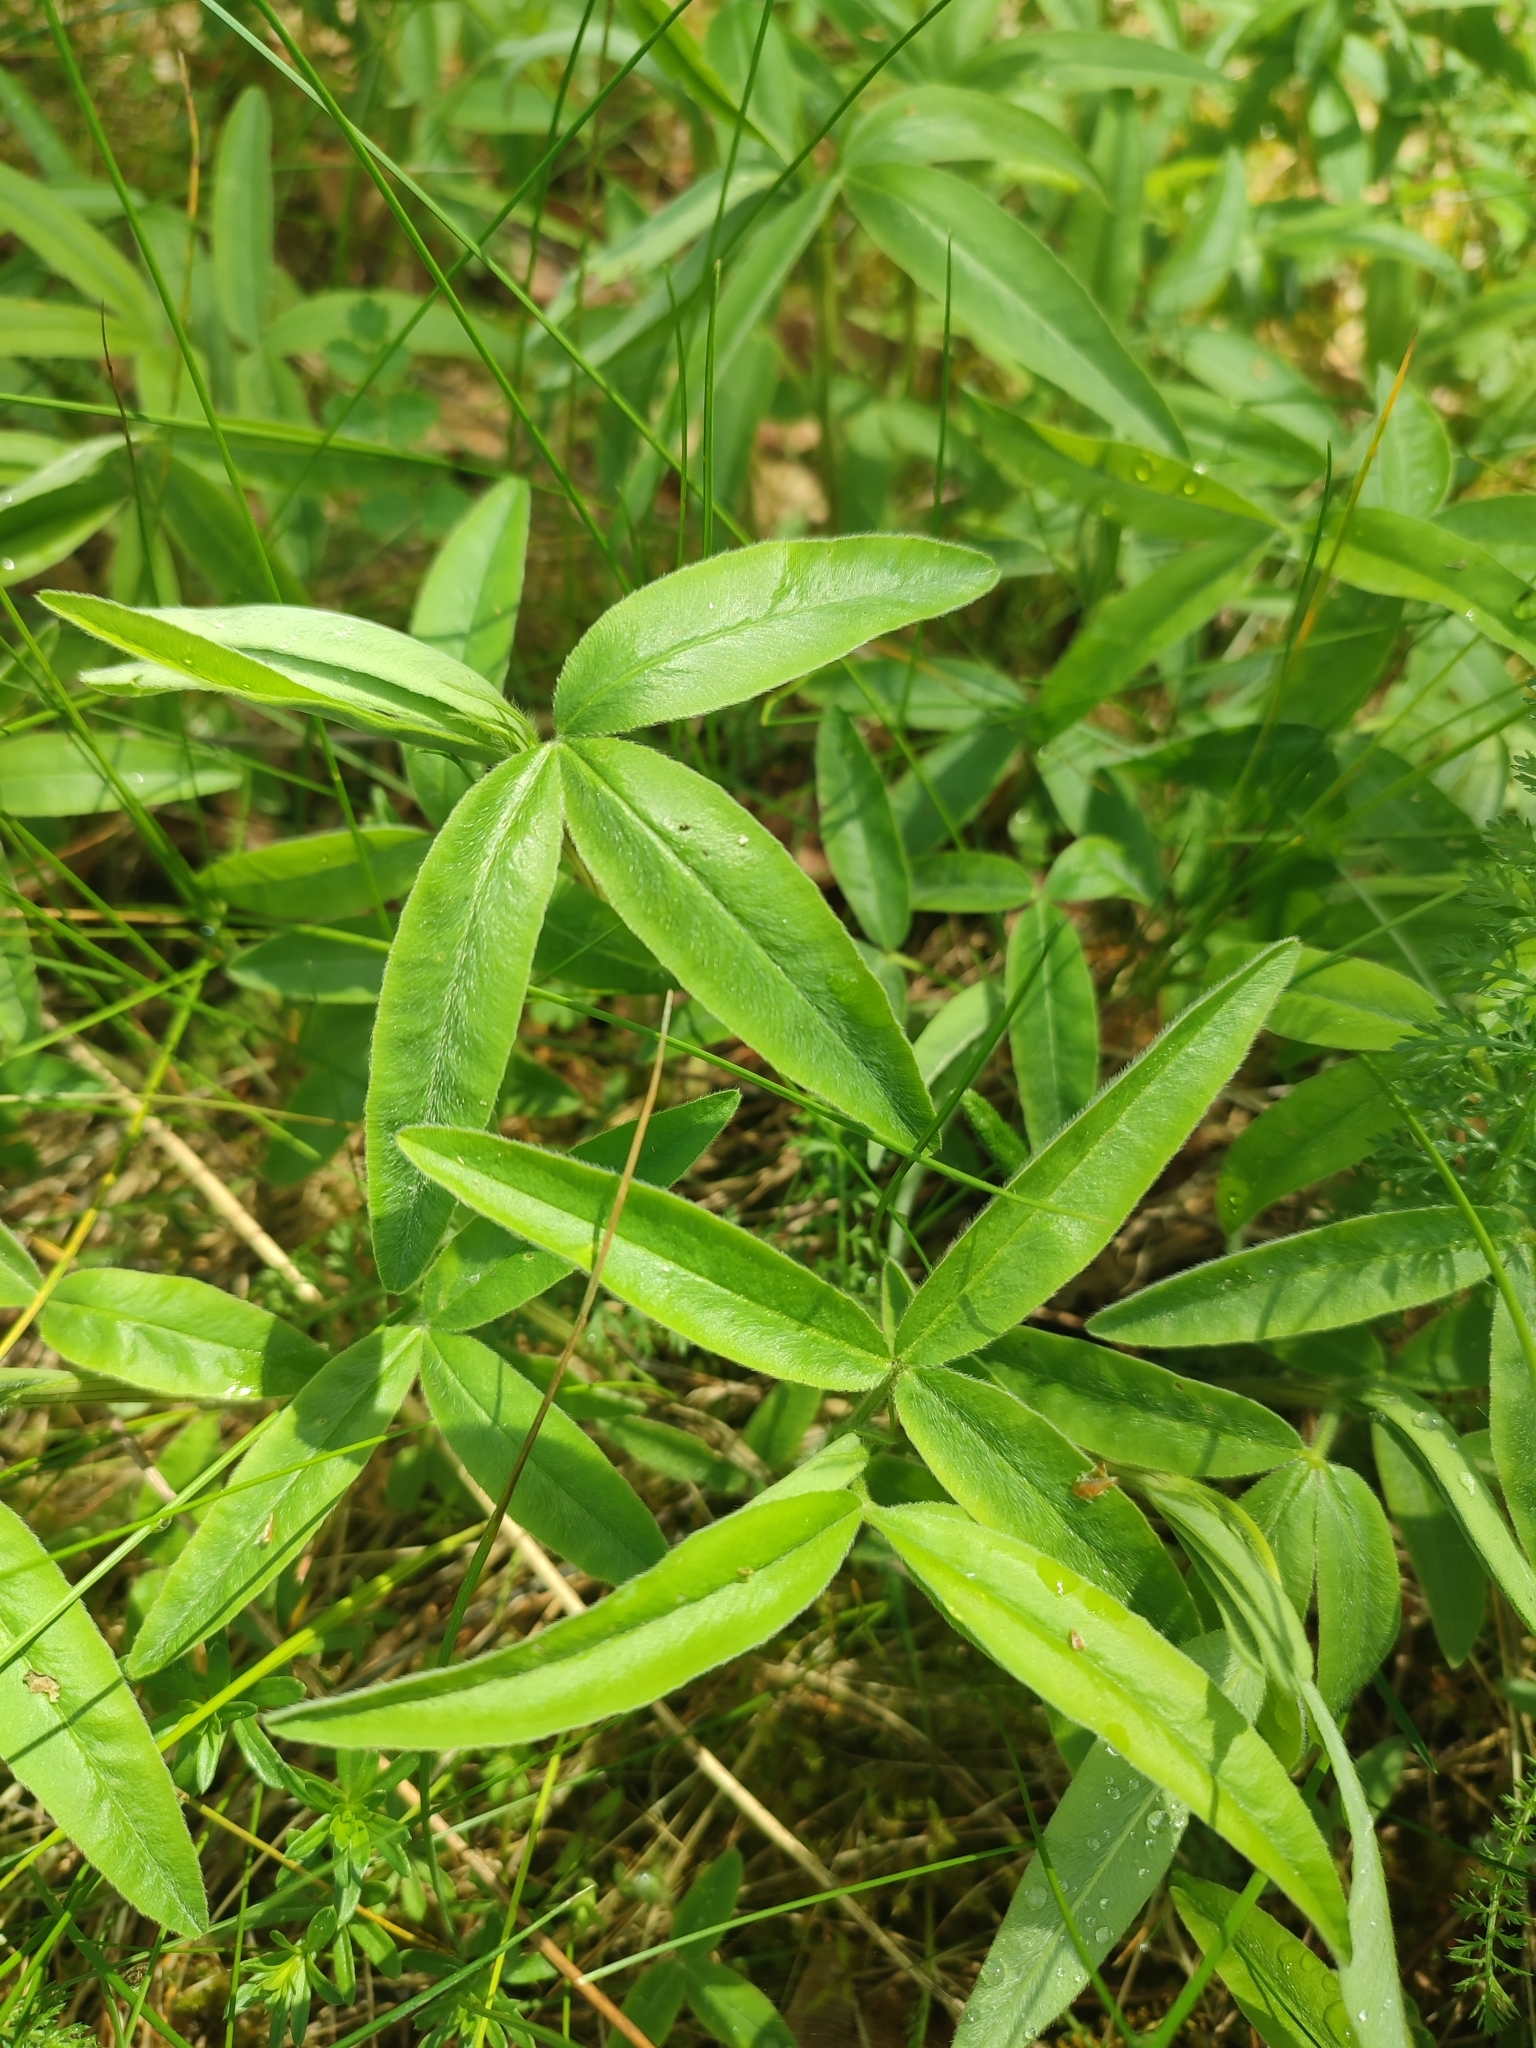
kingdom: Plantae
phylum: Tracheophyta
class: Magnoliopsida
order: Fabales
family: Fabaceae
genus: Trifolium
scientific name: Trifolium alpestre
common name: Owl-head clover
